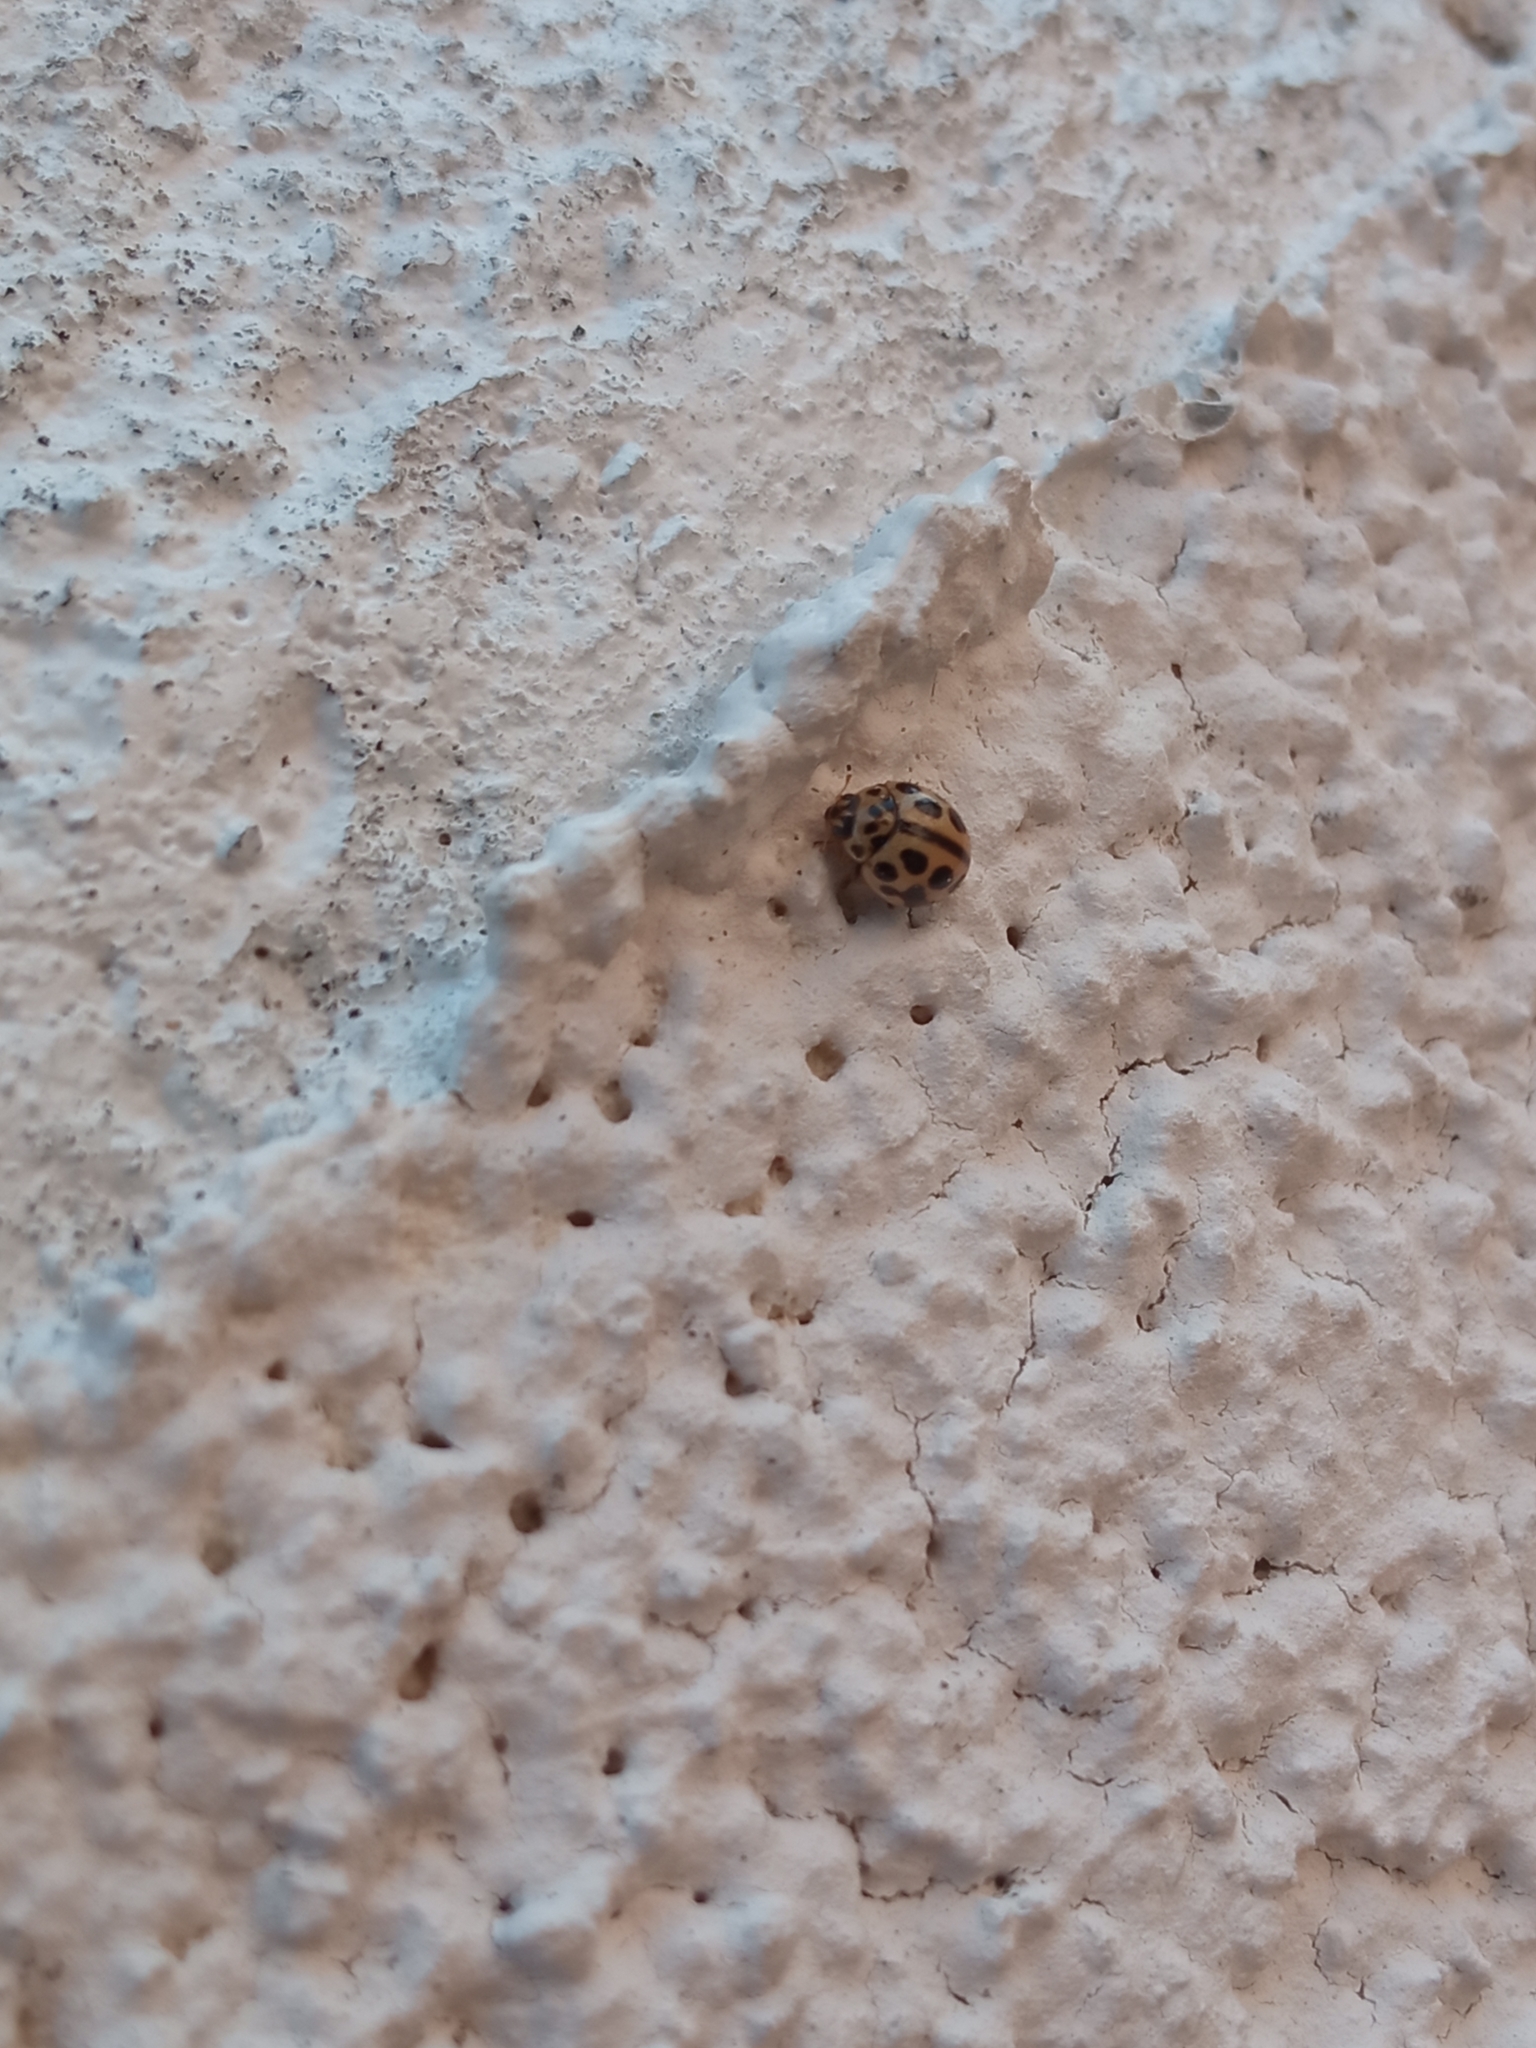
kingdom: Animalia
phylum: Arthropoda
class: Insecta
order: Coleoptera
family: Coccinellidae
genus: Tytthaspis
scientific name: Tytthaspis sedecimpunctata
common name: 16-spot ladybird
